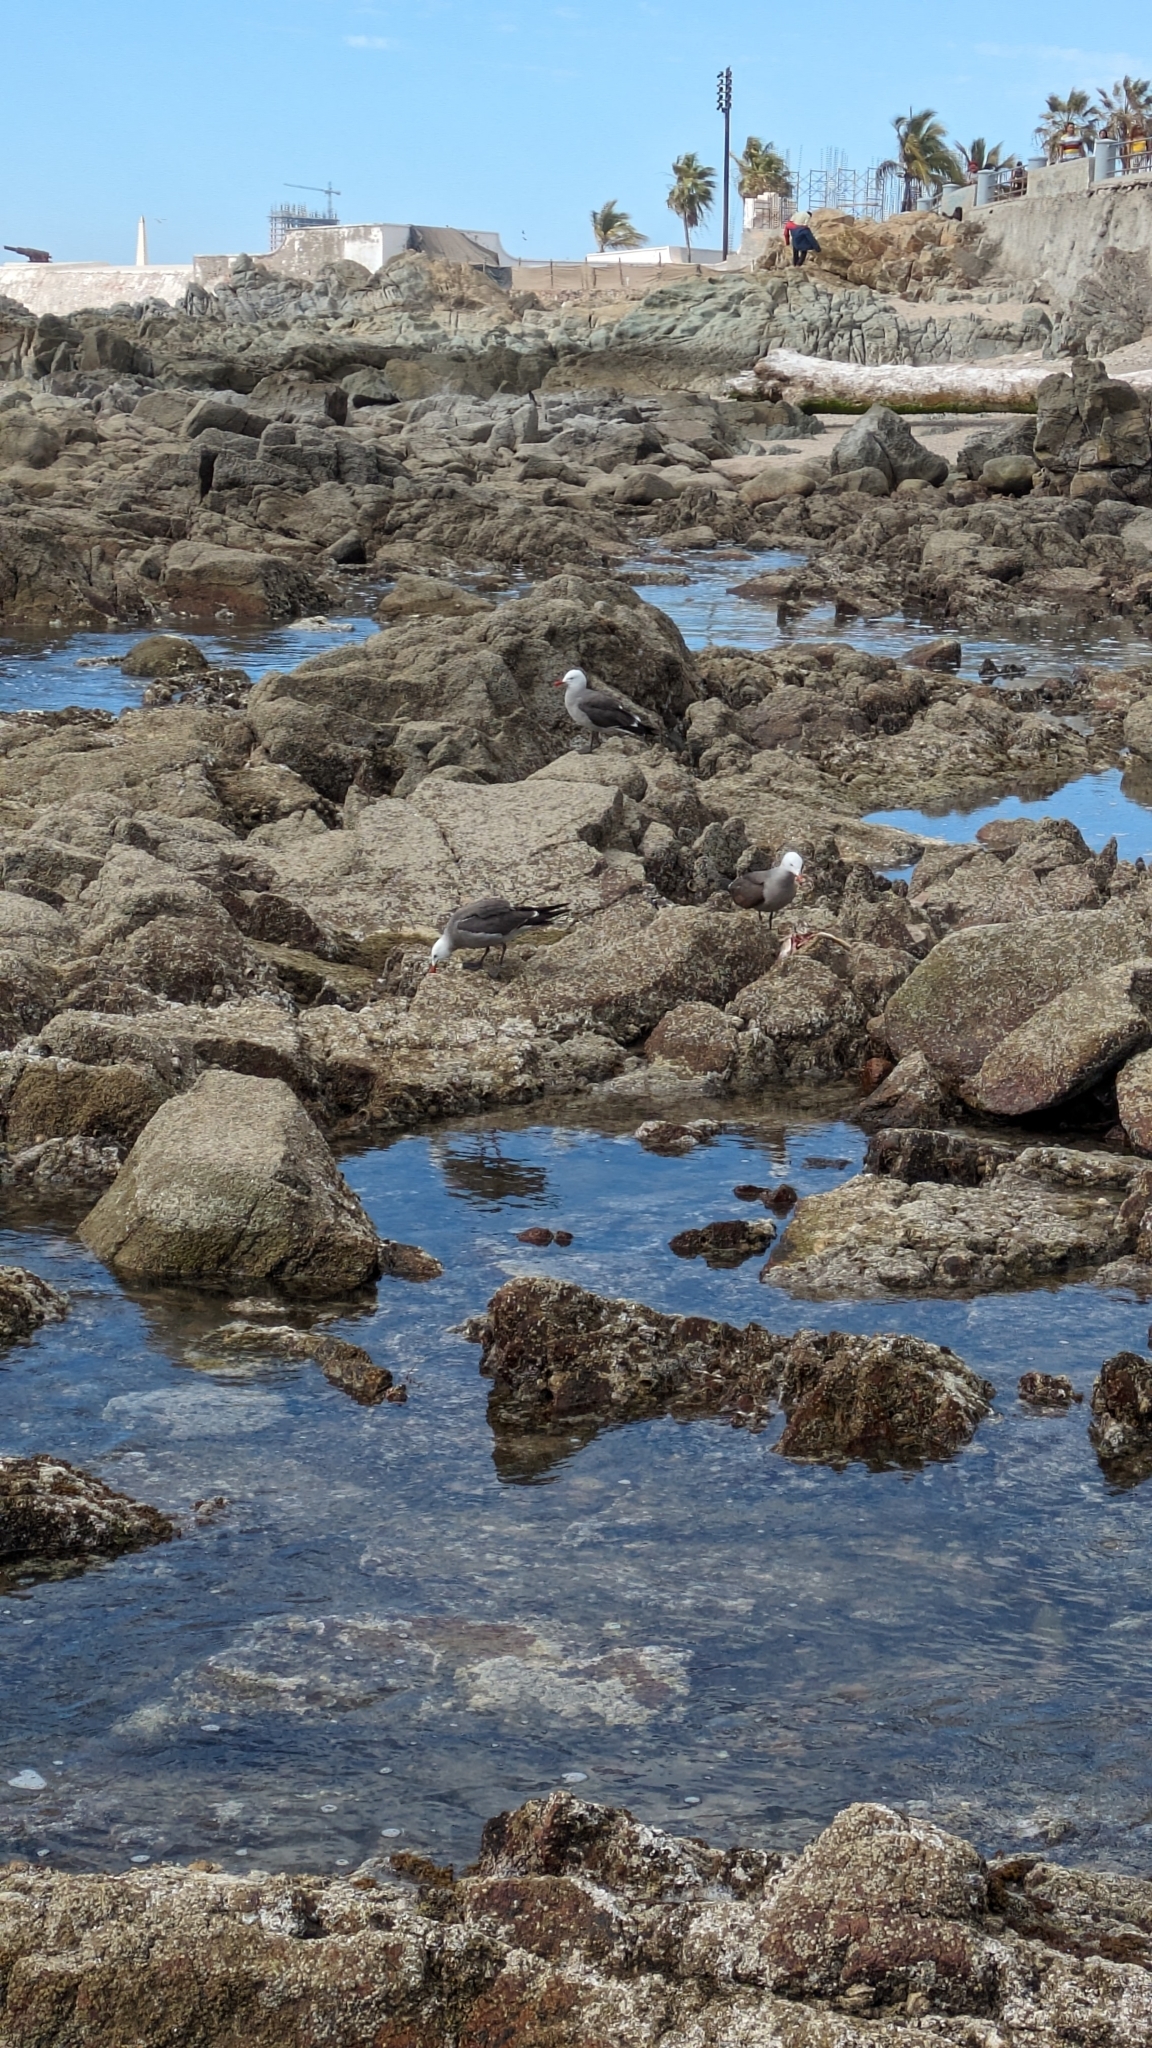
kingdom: Animalia
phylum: Chordata
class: Aves
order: Charadriiformes
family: Laridae
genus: Larus
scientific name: Larus heermanni
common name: Heermann's gull
